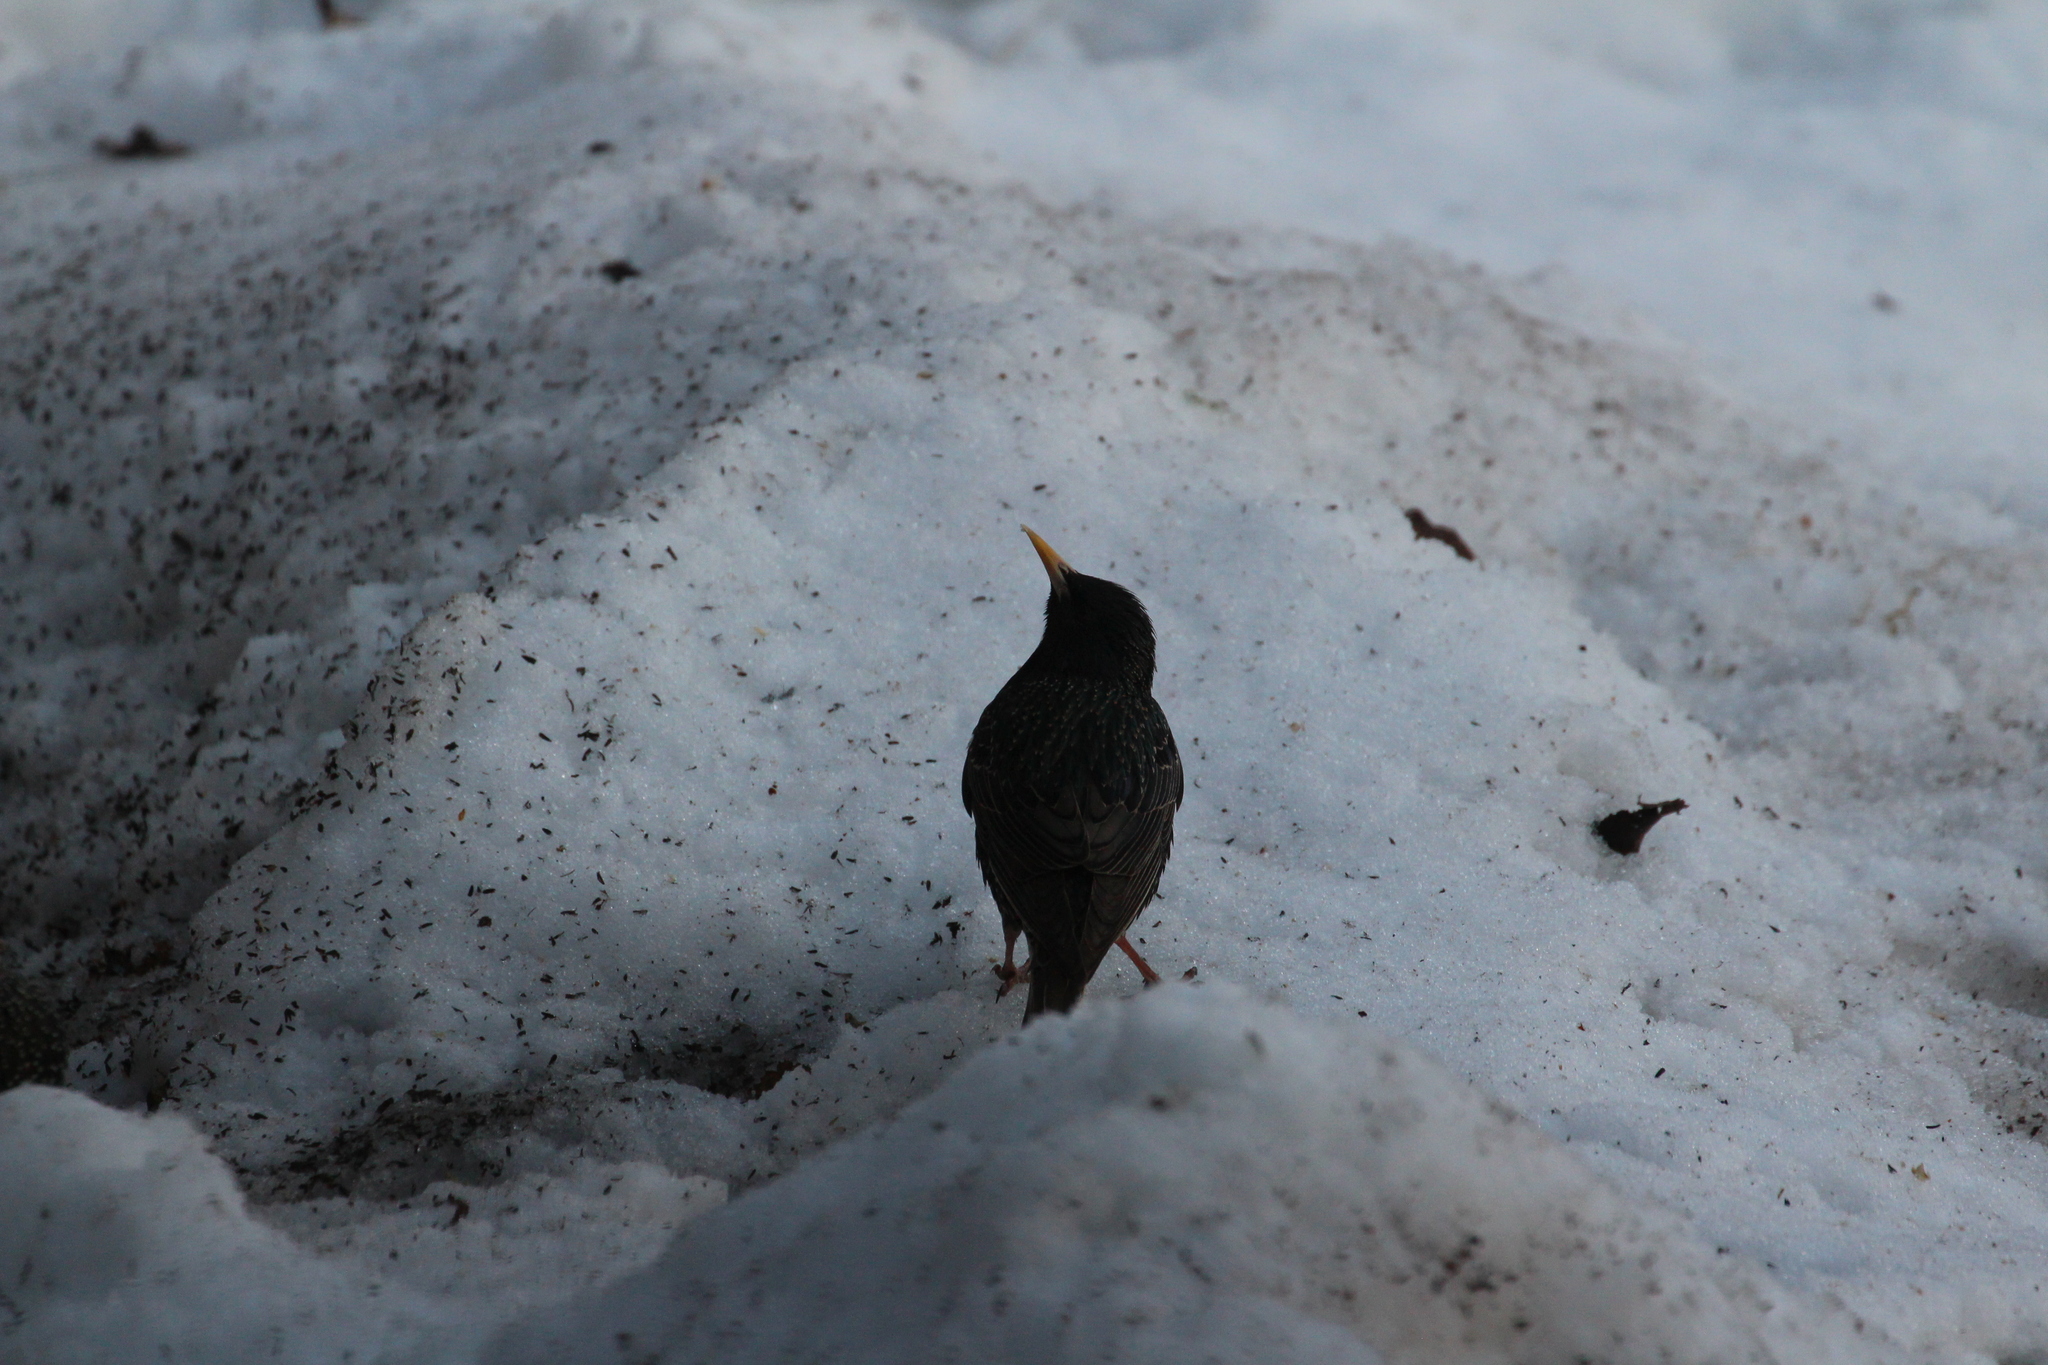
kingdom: Animalia
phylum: Chordata
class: Aves
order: Passeriformes
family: Sturnidae
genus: Sturnus
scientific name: Sturnus vulgaris
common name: Common starling
